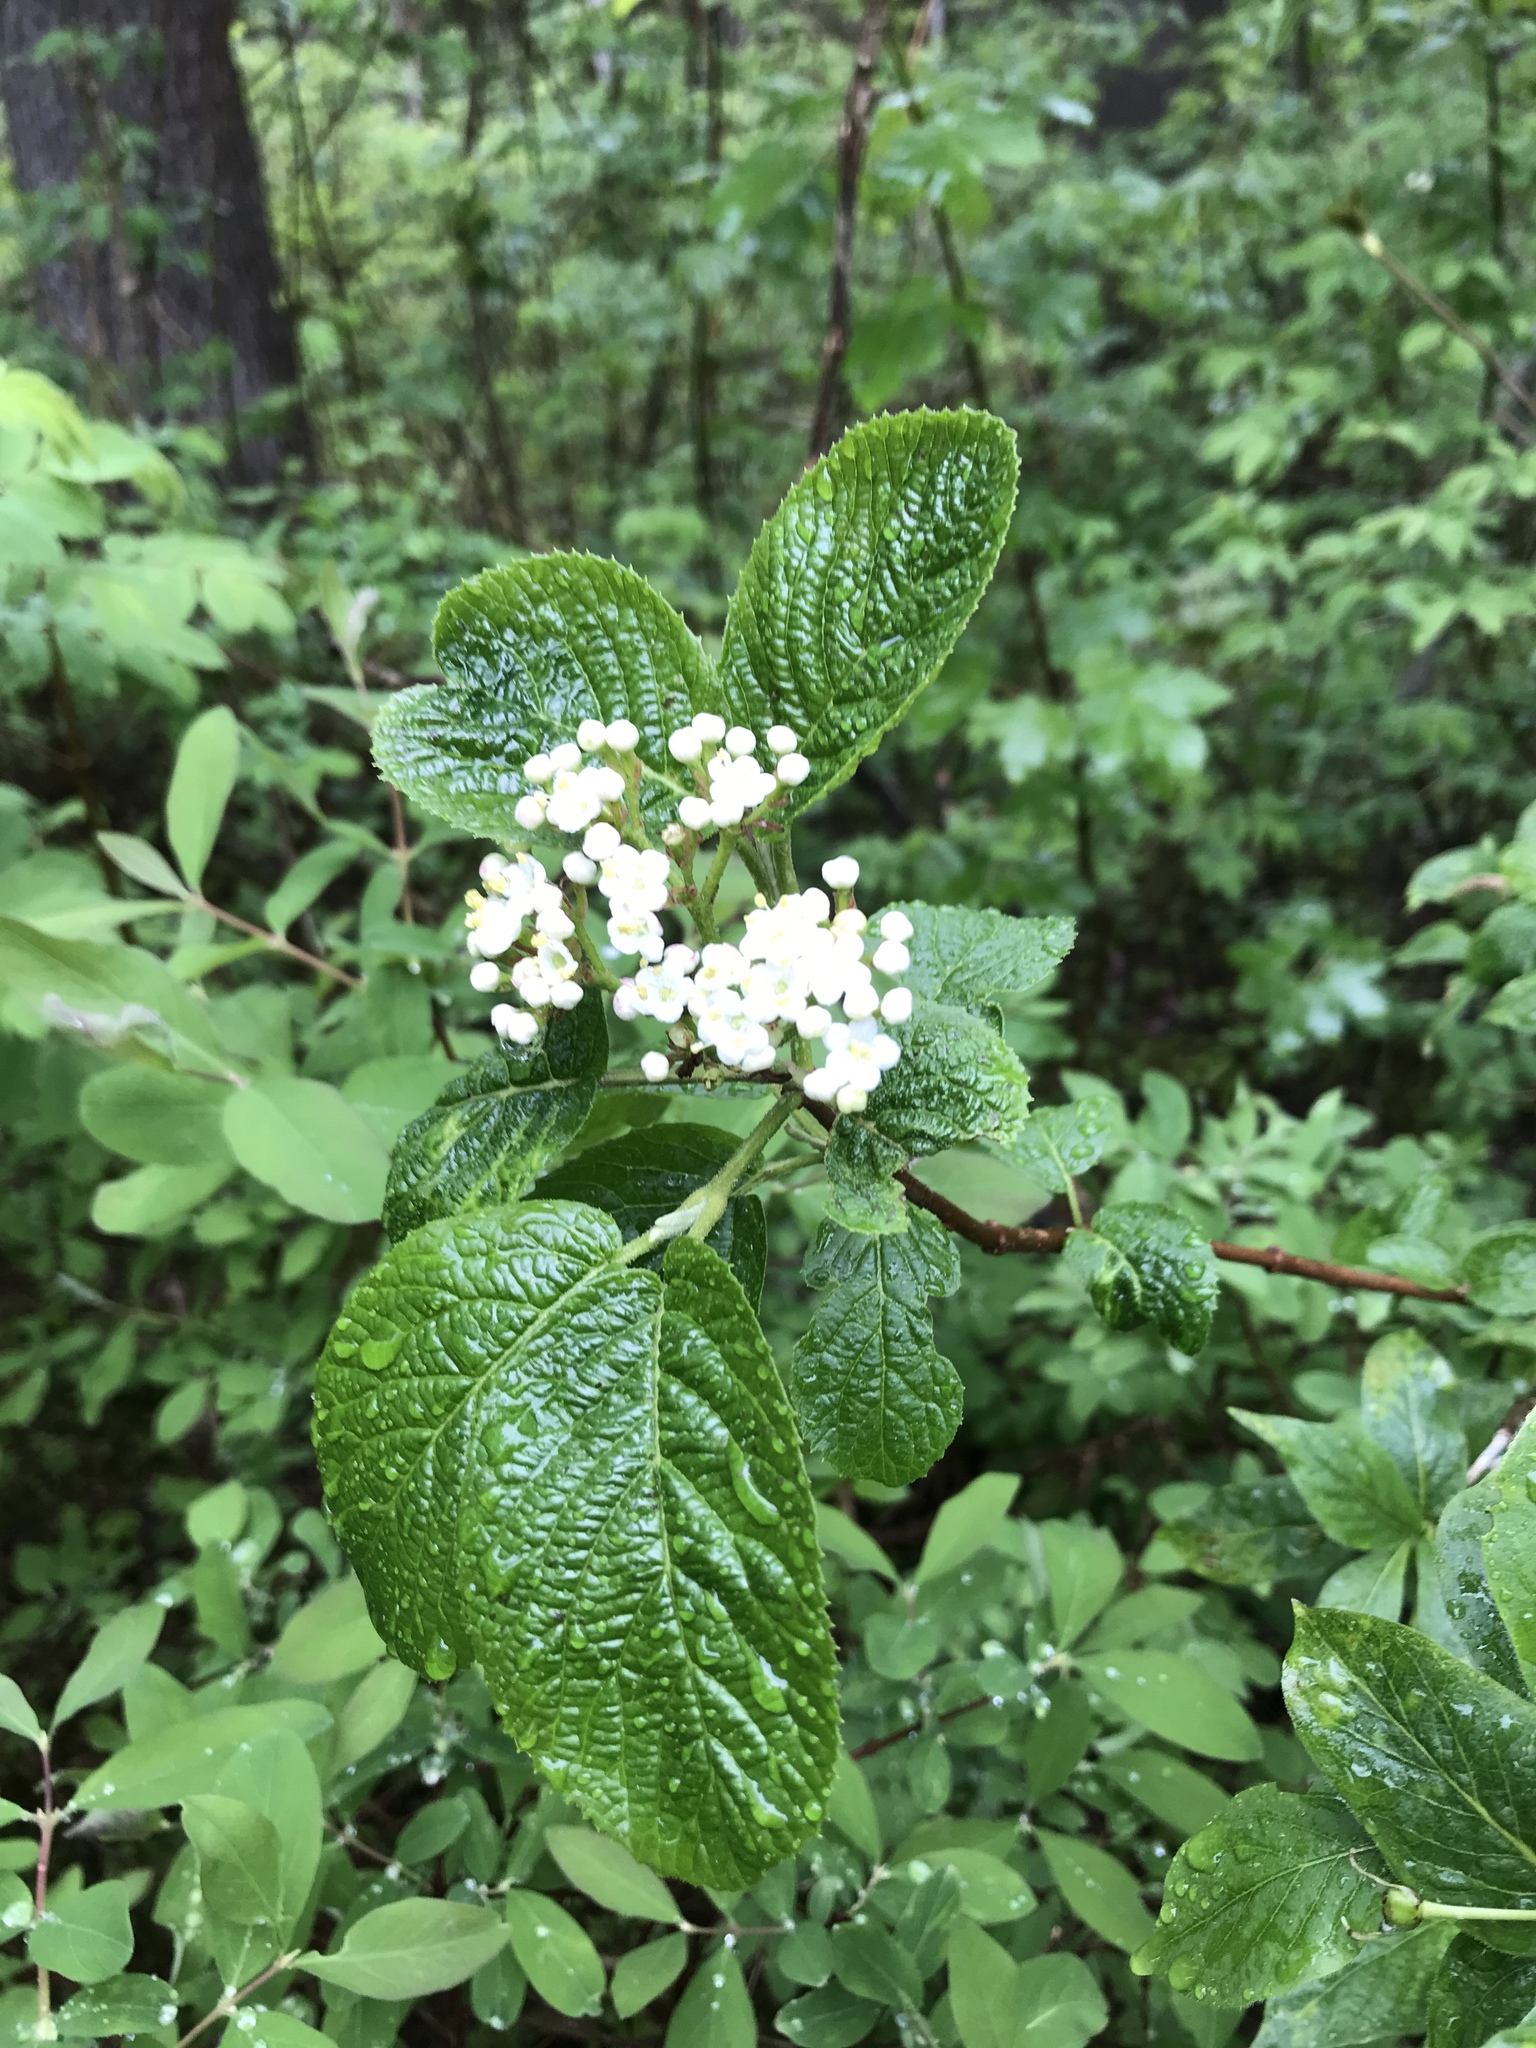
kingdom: Plantae
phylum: Tracheophyta
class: Magnoliopsida
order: Dipsacales
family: Viburnaceae
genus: Viburnum
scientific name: Viburnum lantana
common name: Wayfaring tree
